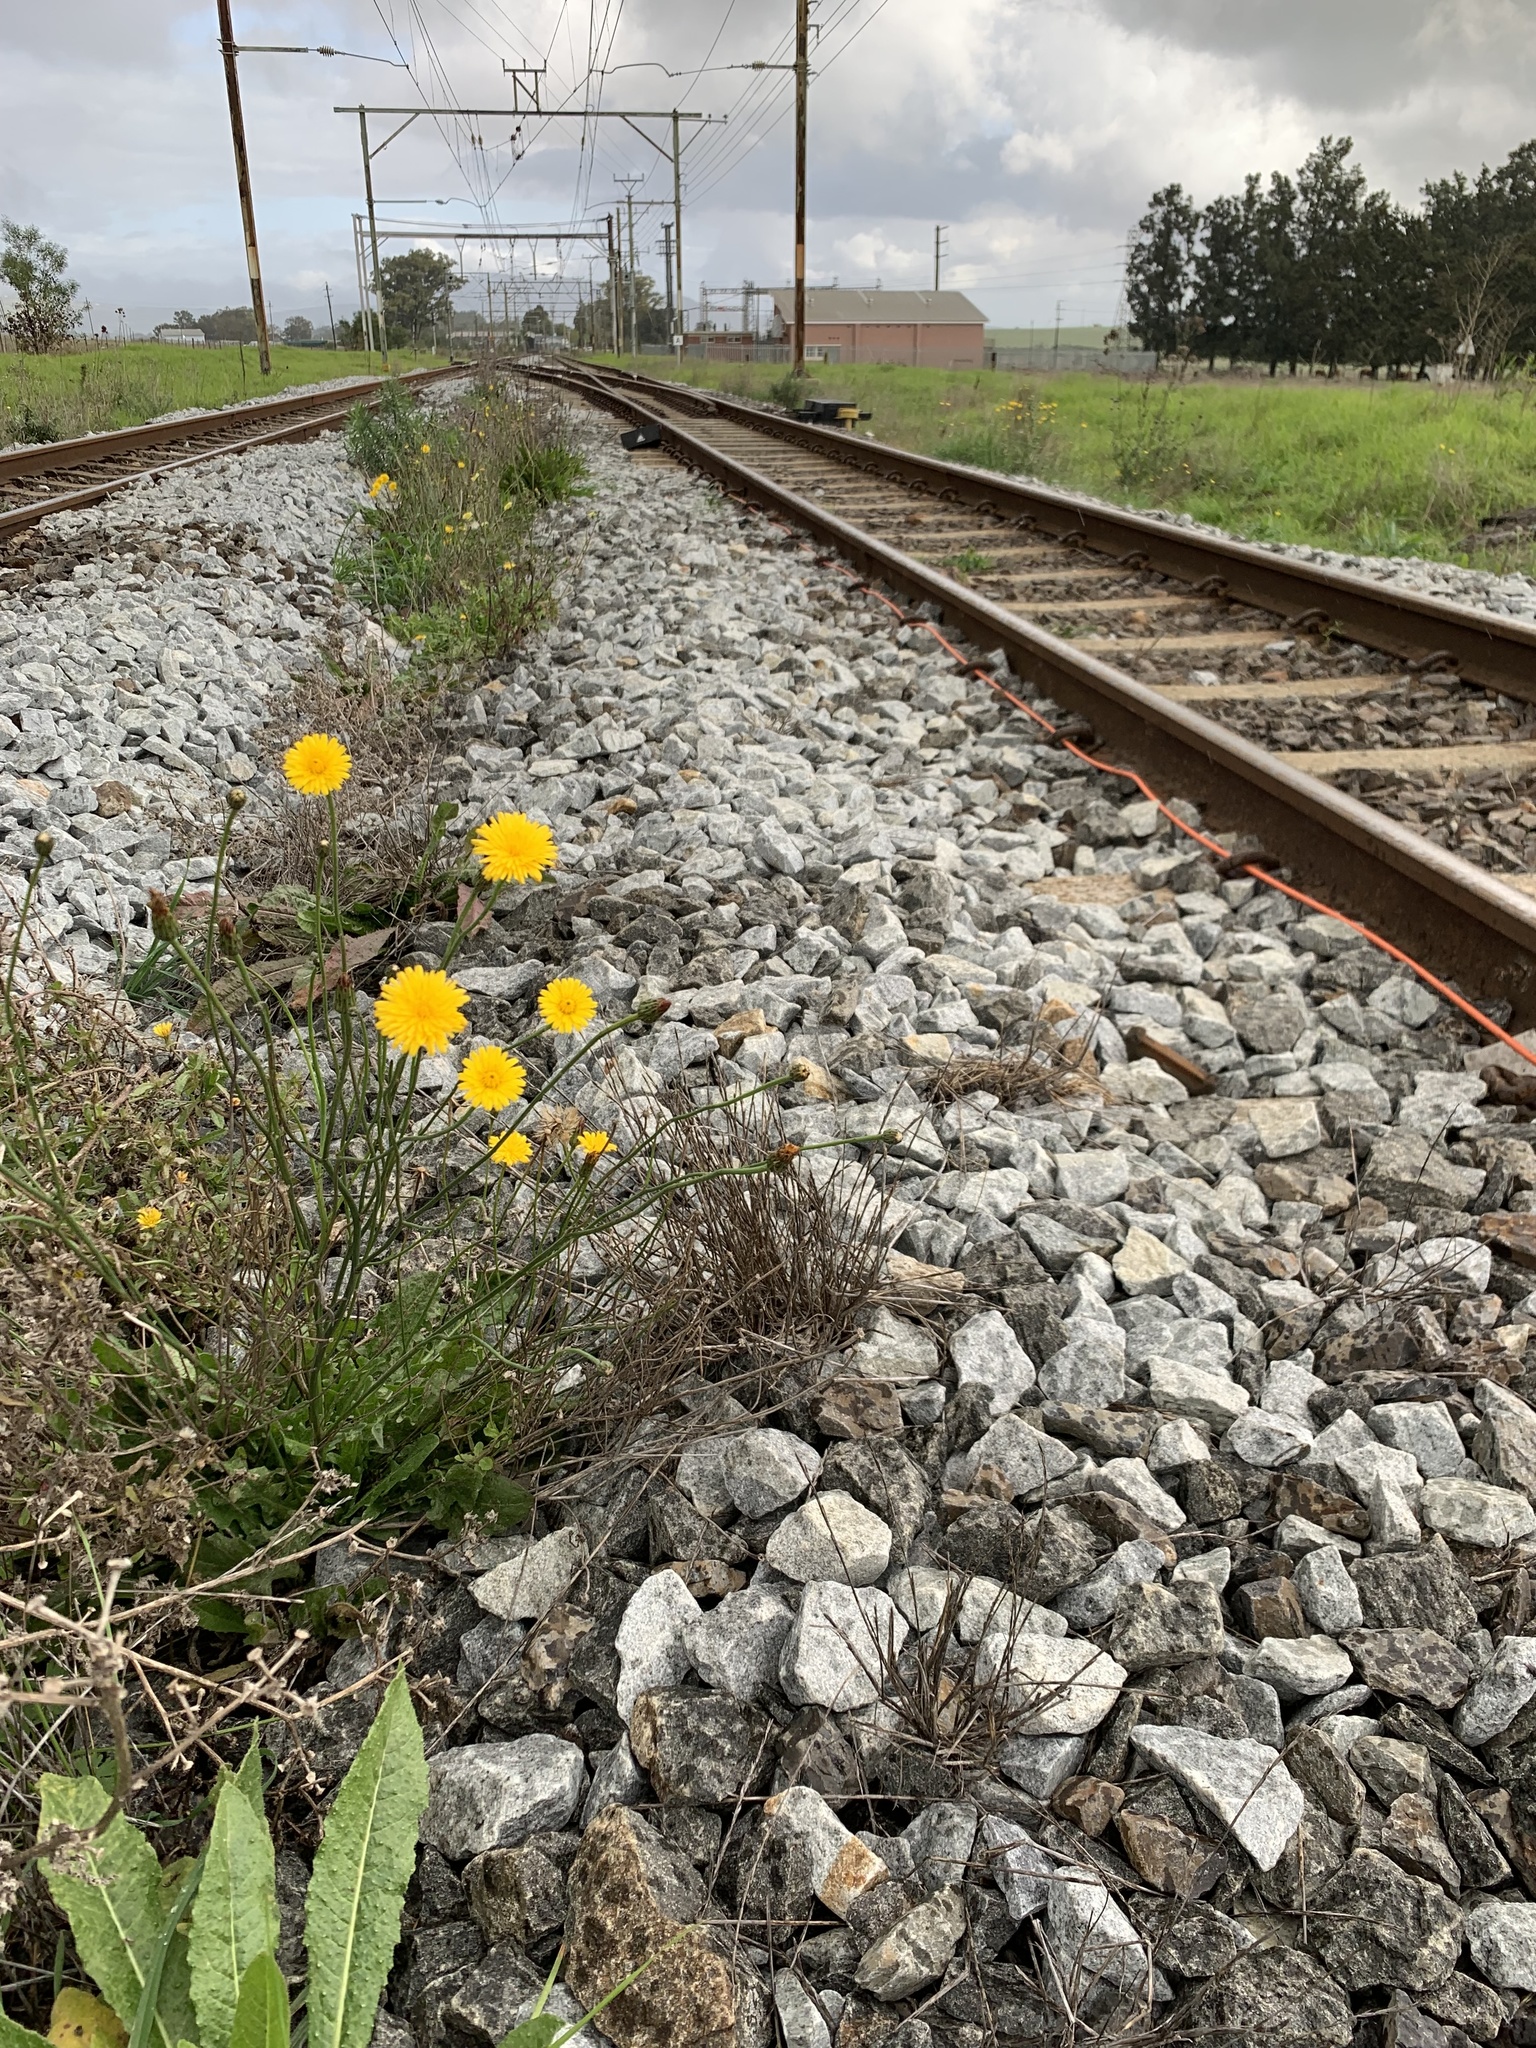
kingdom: Plantae
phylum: Tracheophyta
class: Magnoliopsida
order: Asterales
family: Asteraceae
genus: Hypochaeris
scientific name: Hypochaeris radicata
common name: Flatweed
